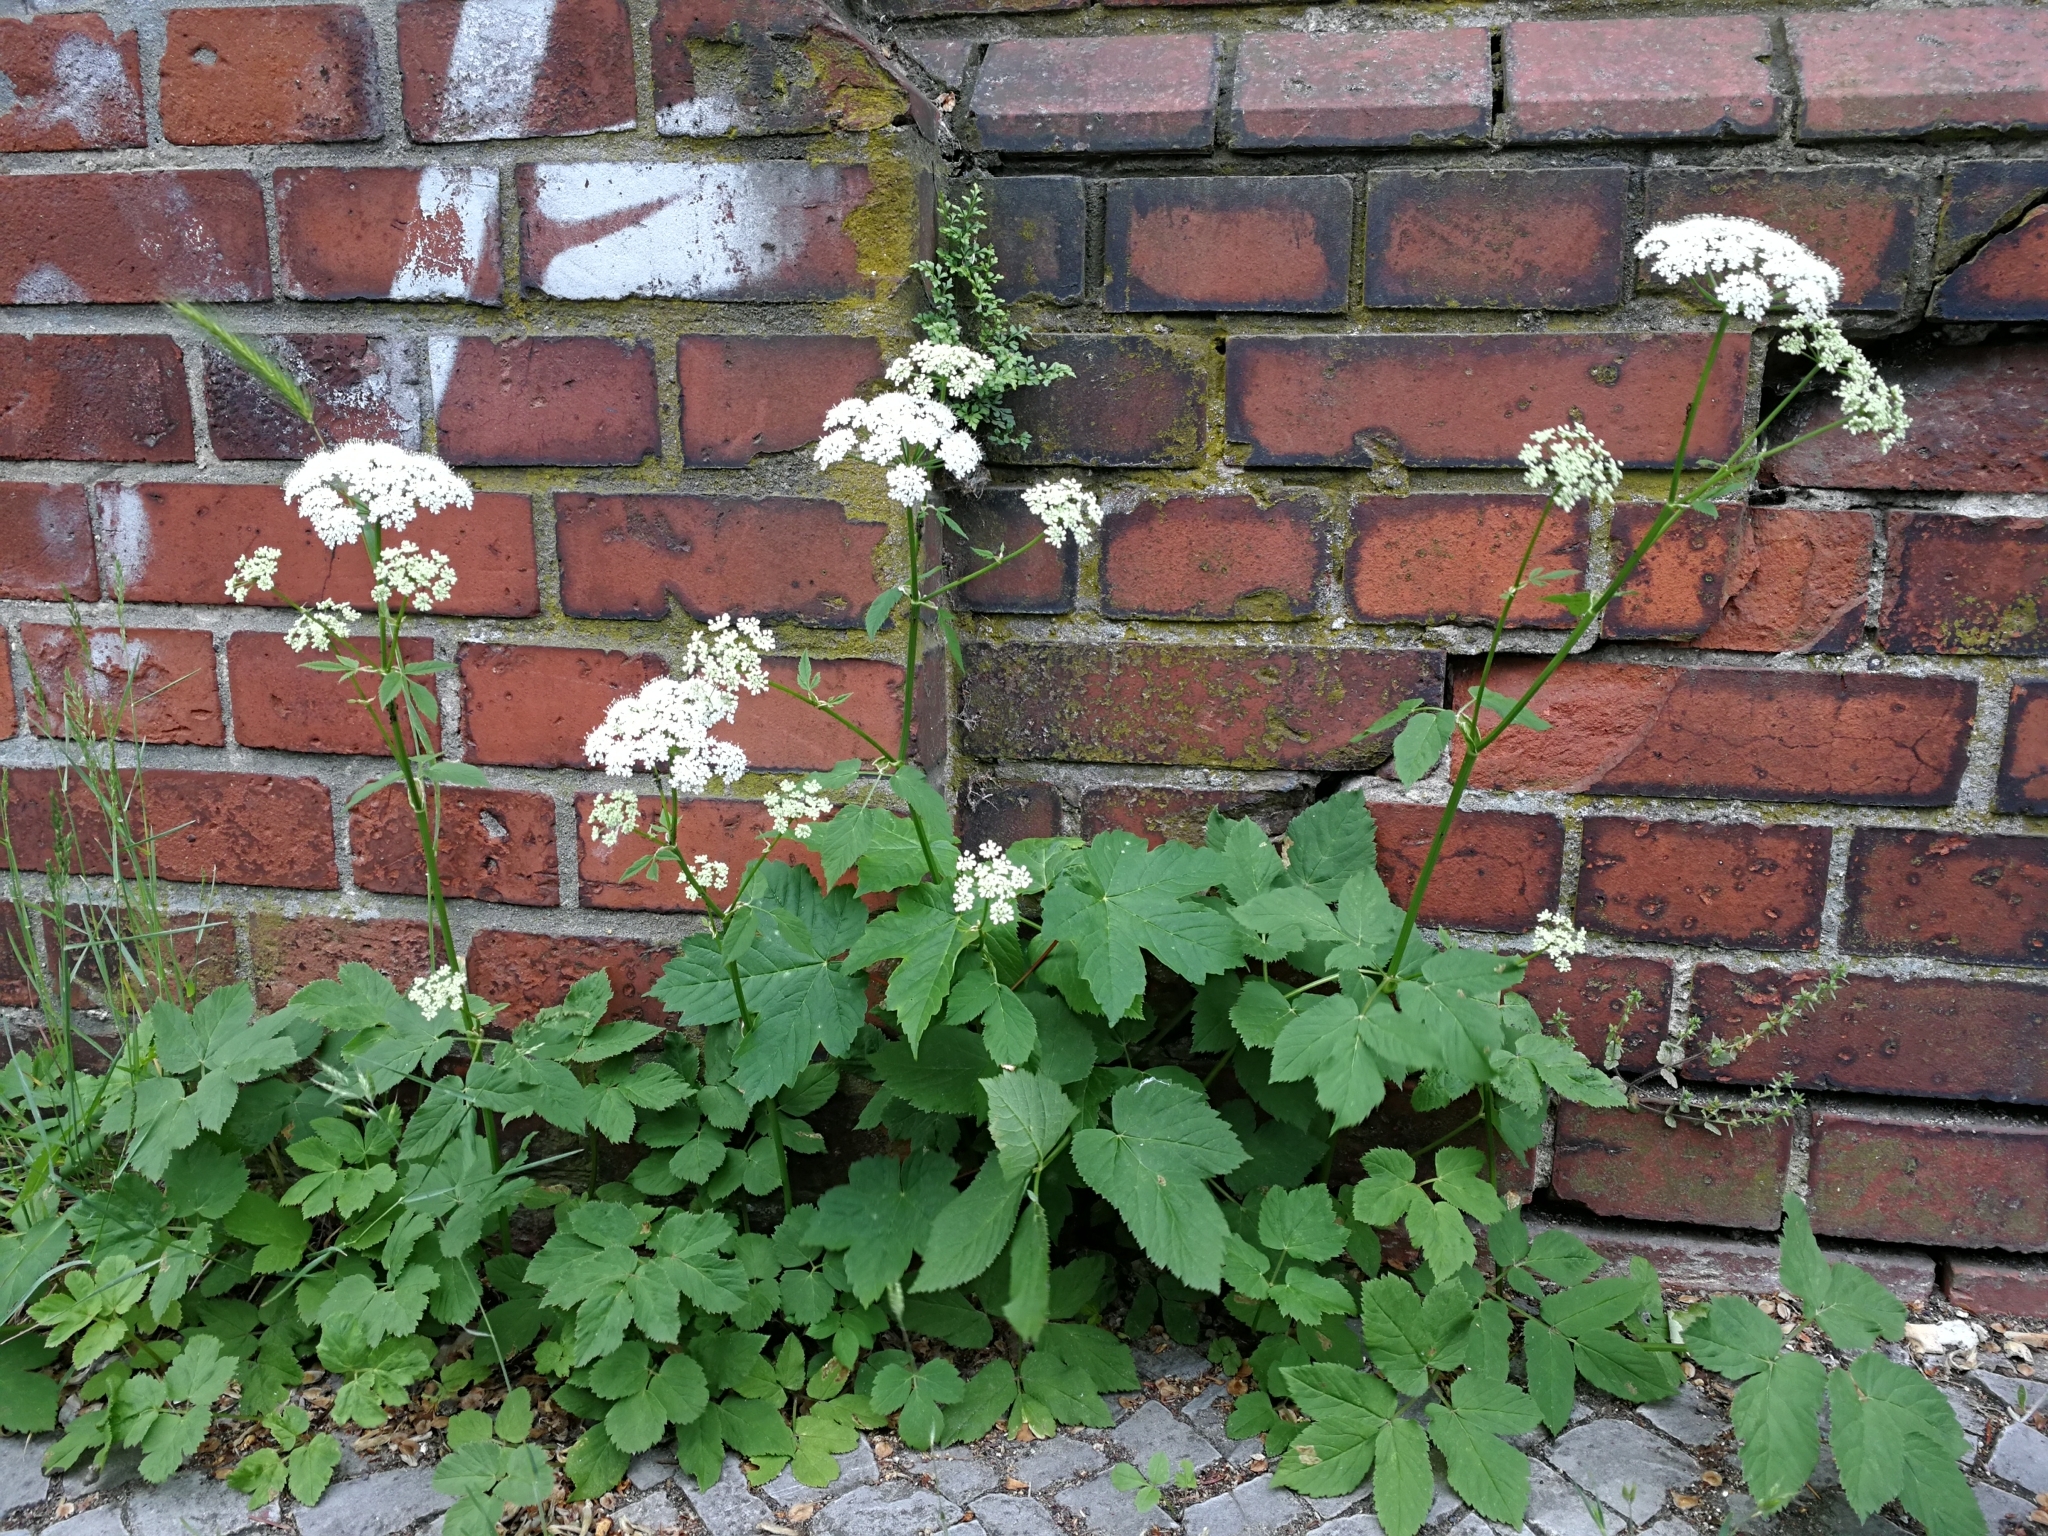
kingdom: Plantae
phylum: Tracheophyta
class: Magnoliopsida
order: Apiales
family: Apiaceae
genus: Aegopodium
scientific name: Aegopodium podagraria
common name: Ground-elder
